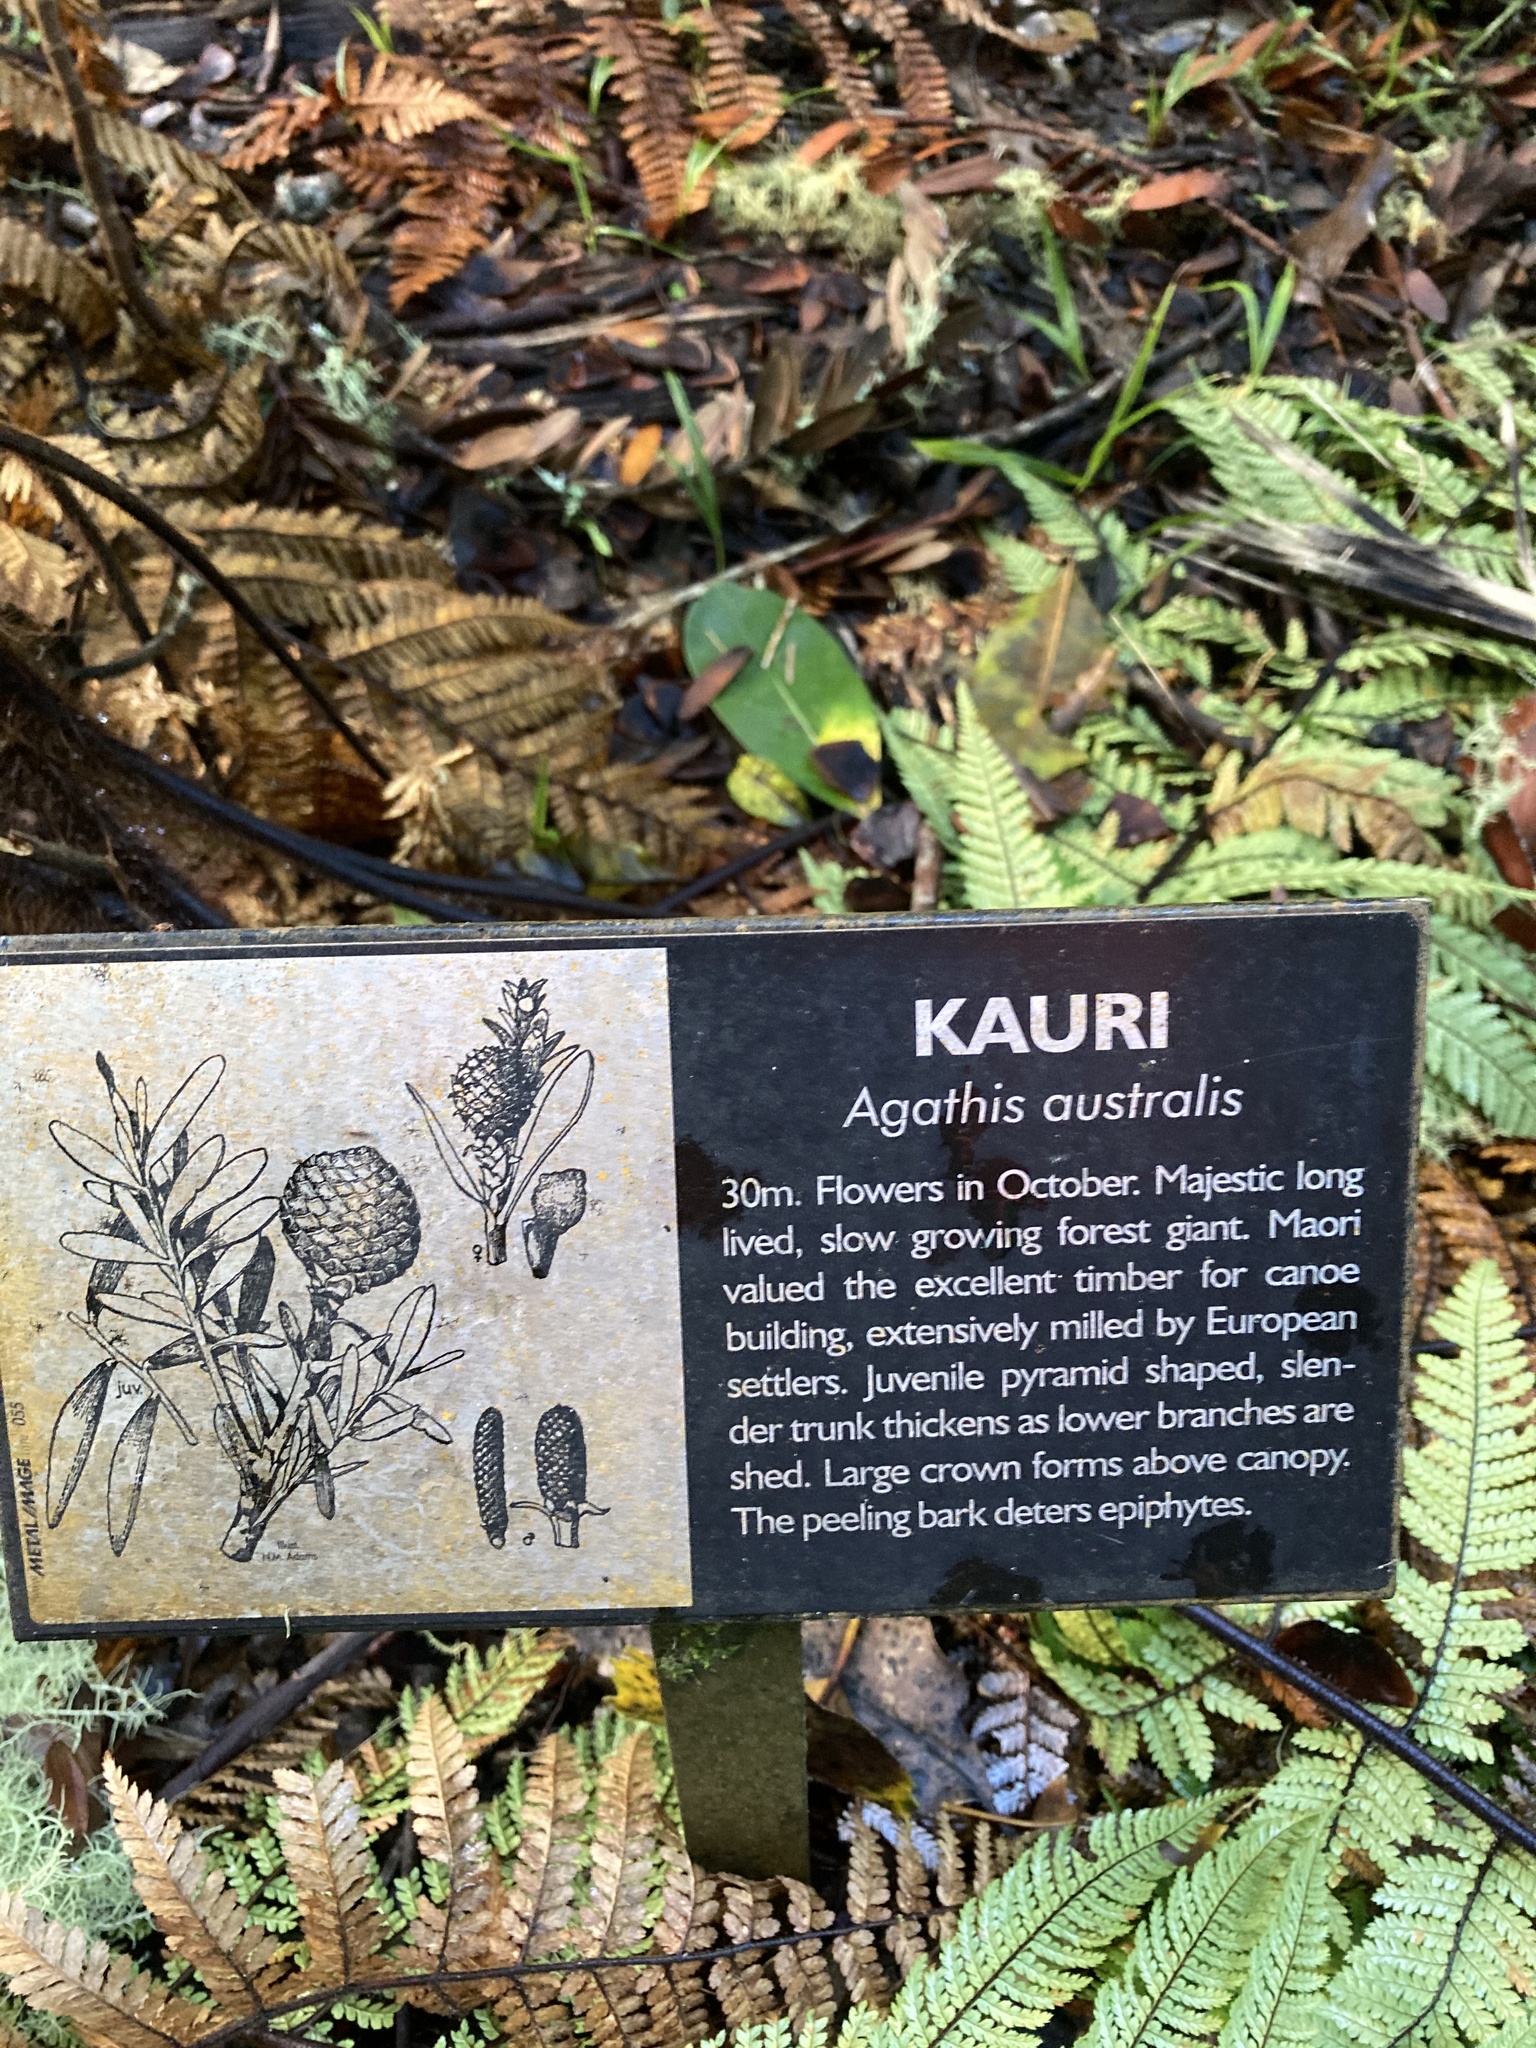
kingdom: Plantae
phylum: Tracheophyta
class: Pinopsida
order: Pinales
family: Araucariaceae
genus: Agathis
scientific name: Agathis australis
